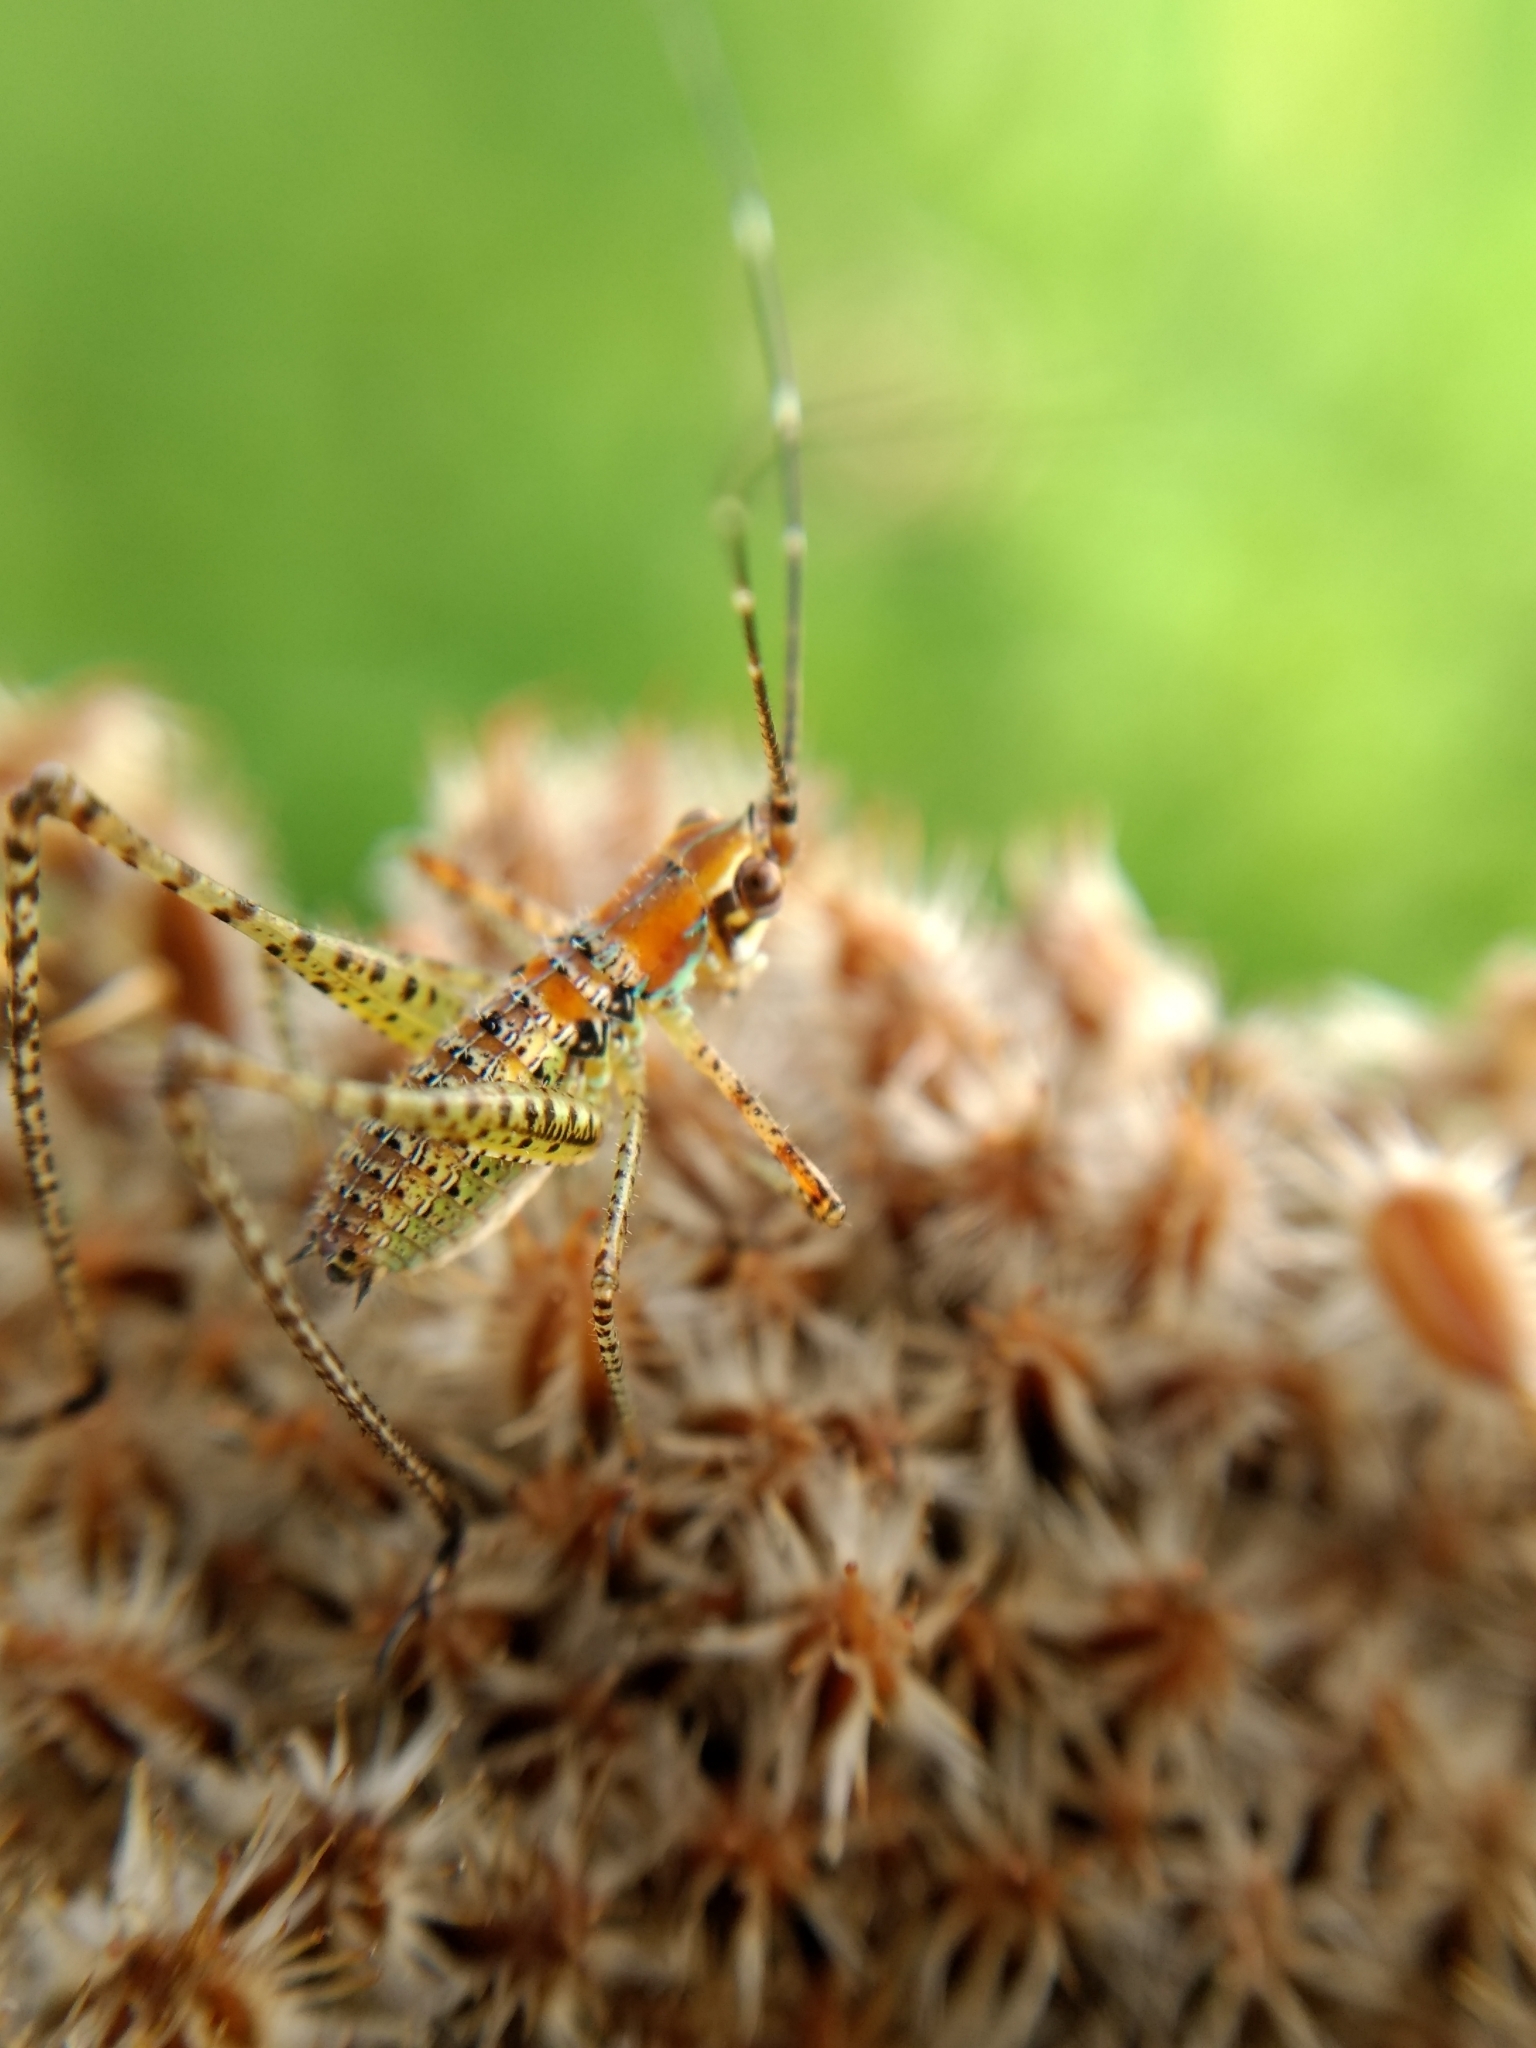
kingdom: Animalia
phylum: Arthropoda
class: Insecta
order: Orthoptera
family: Tettigoniidae
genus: Scudderia
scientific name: Scudderia
